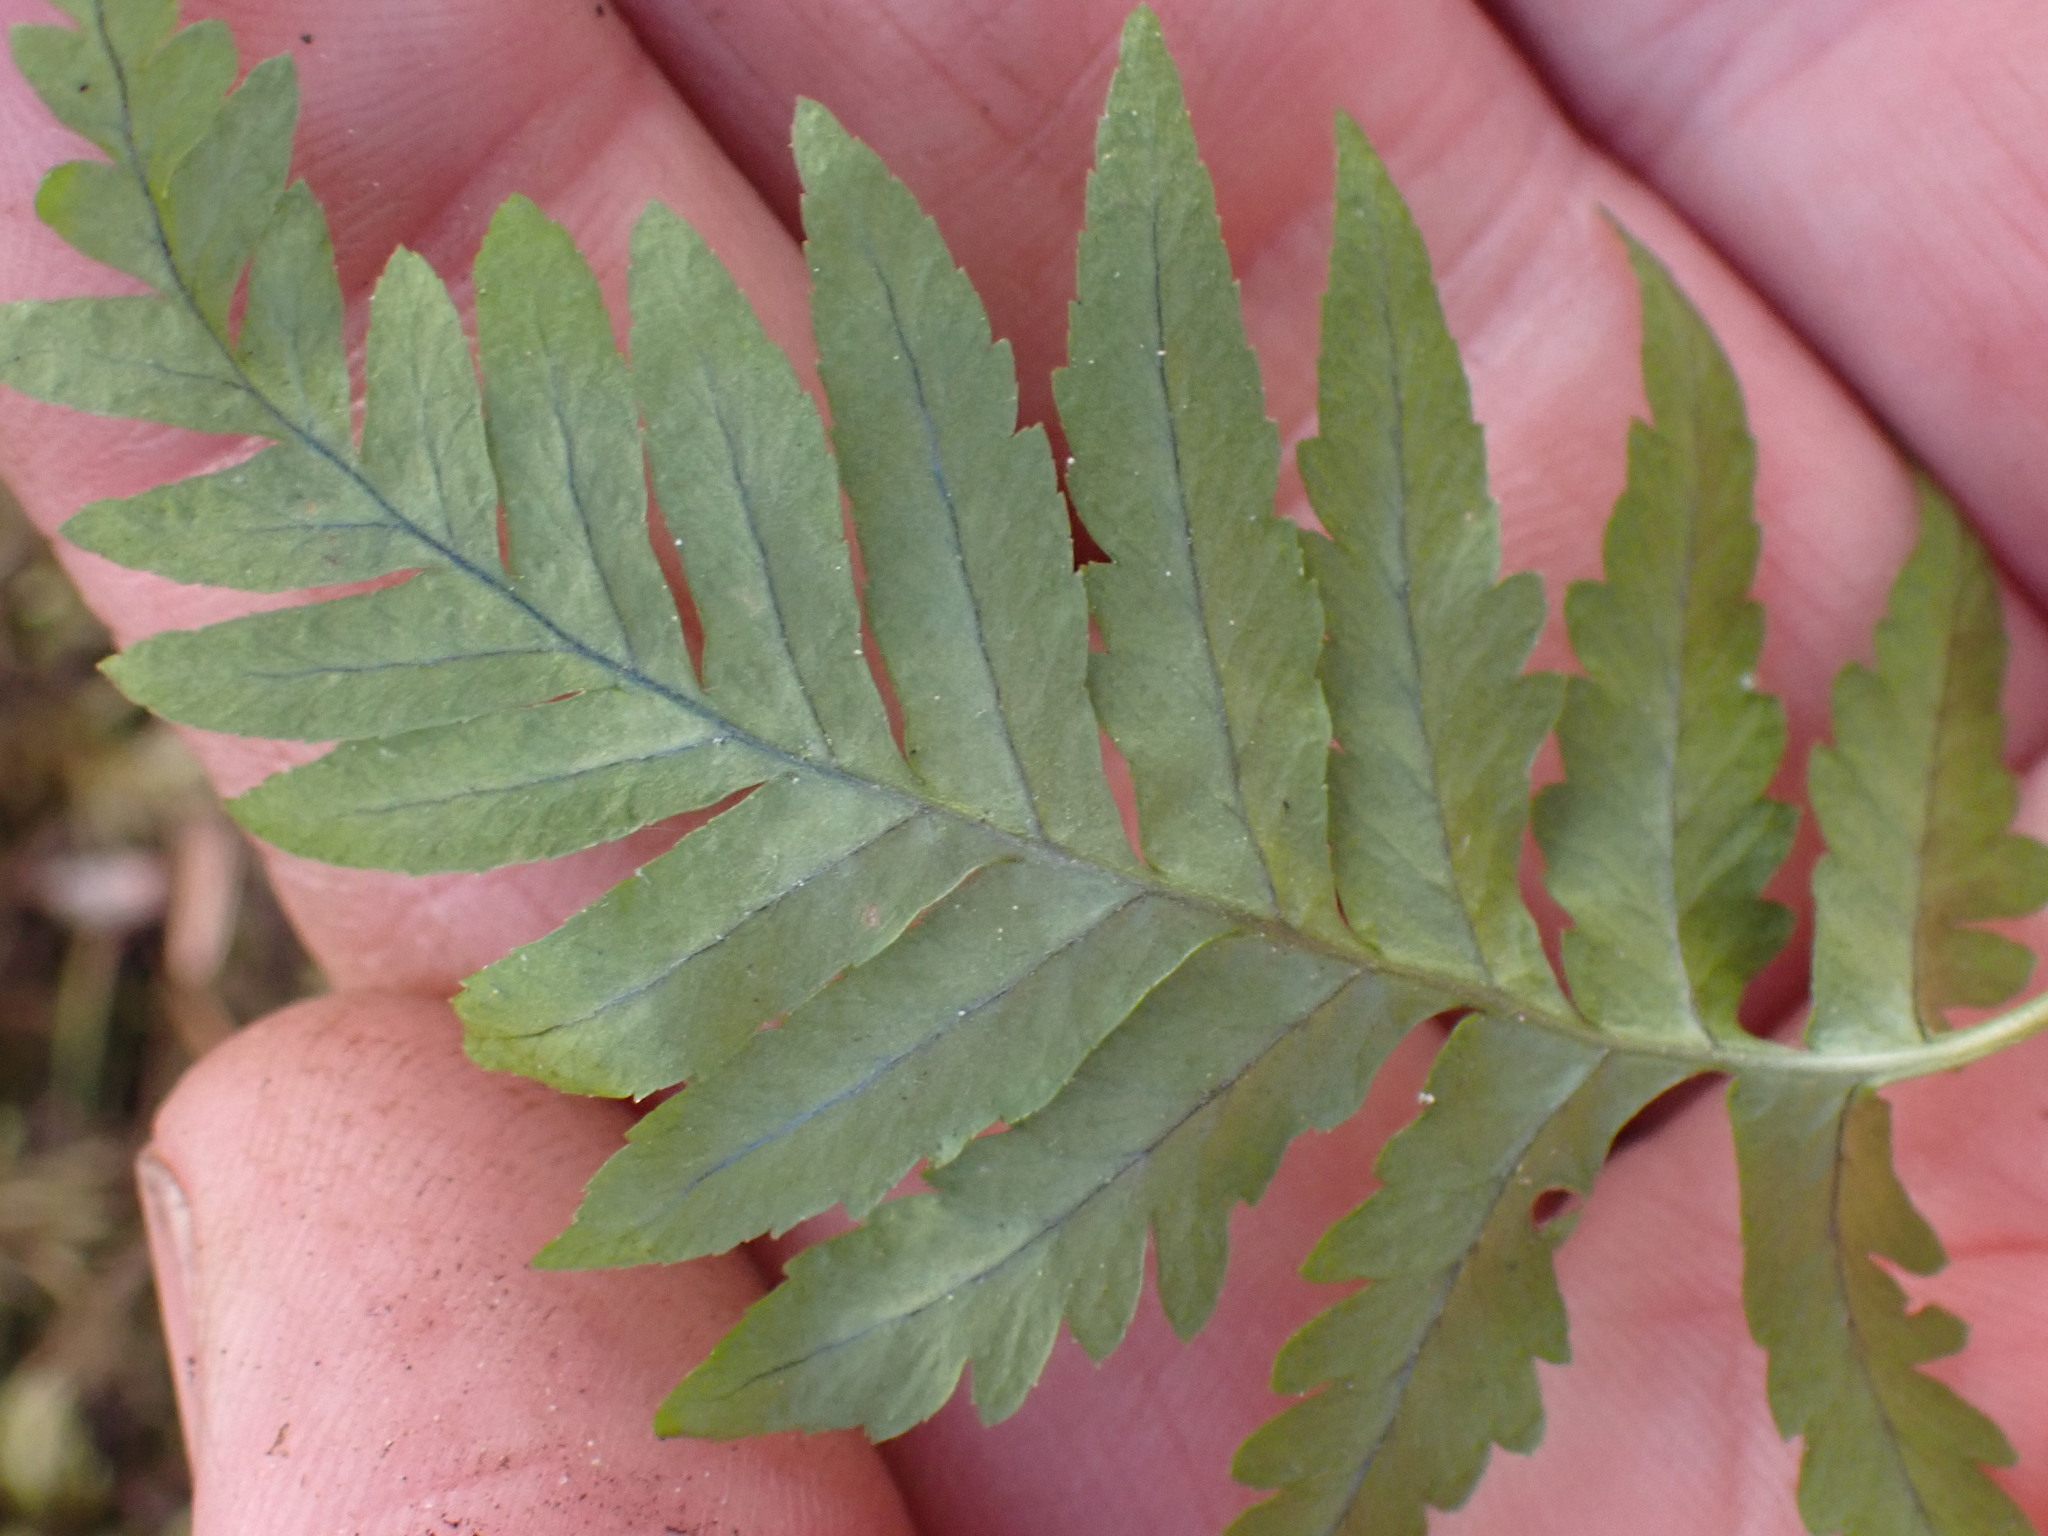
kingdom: Plantae
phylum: Tracheophyta
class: Polypodiopsida
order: Polypodiales
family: Polypodiaceae
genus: Polypodium
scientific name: Polypodium glycyrrhiza
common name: Licorice fern
